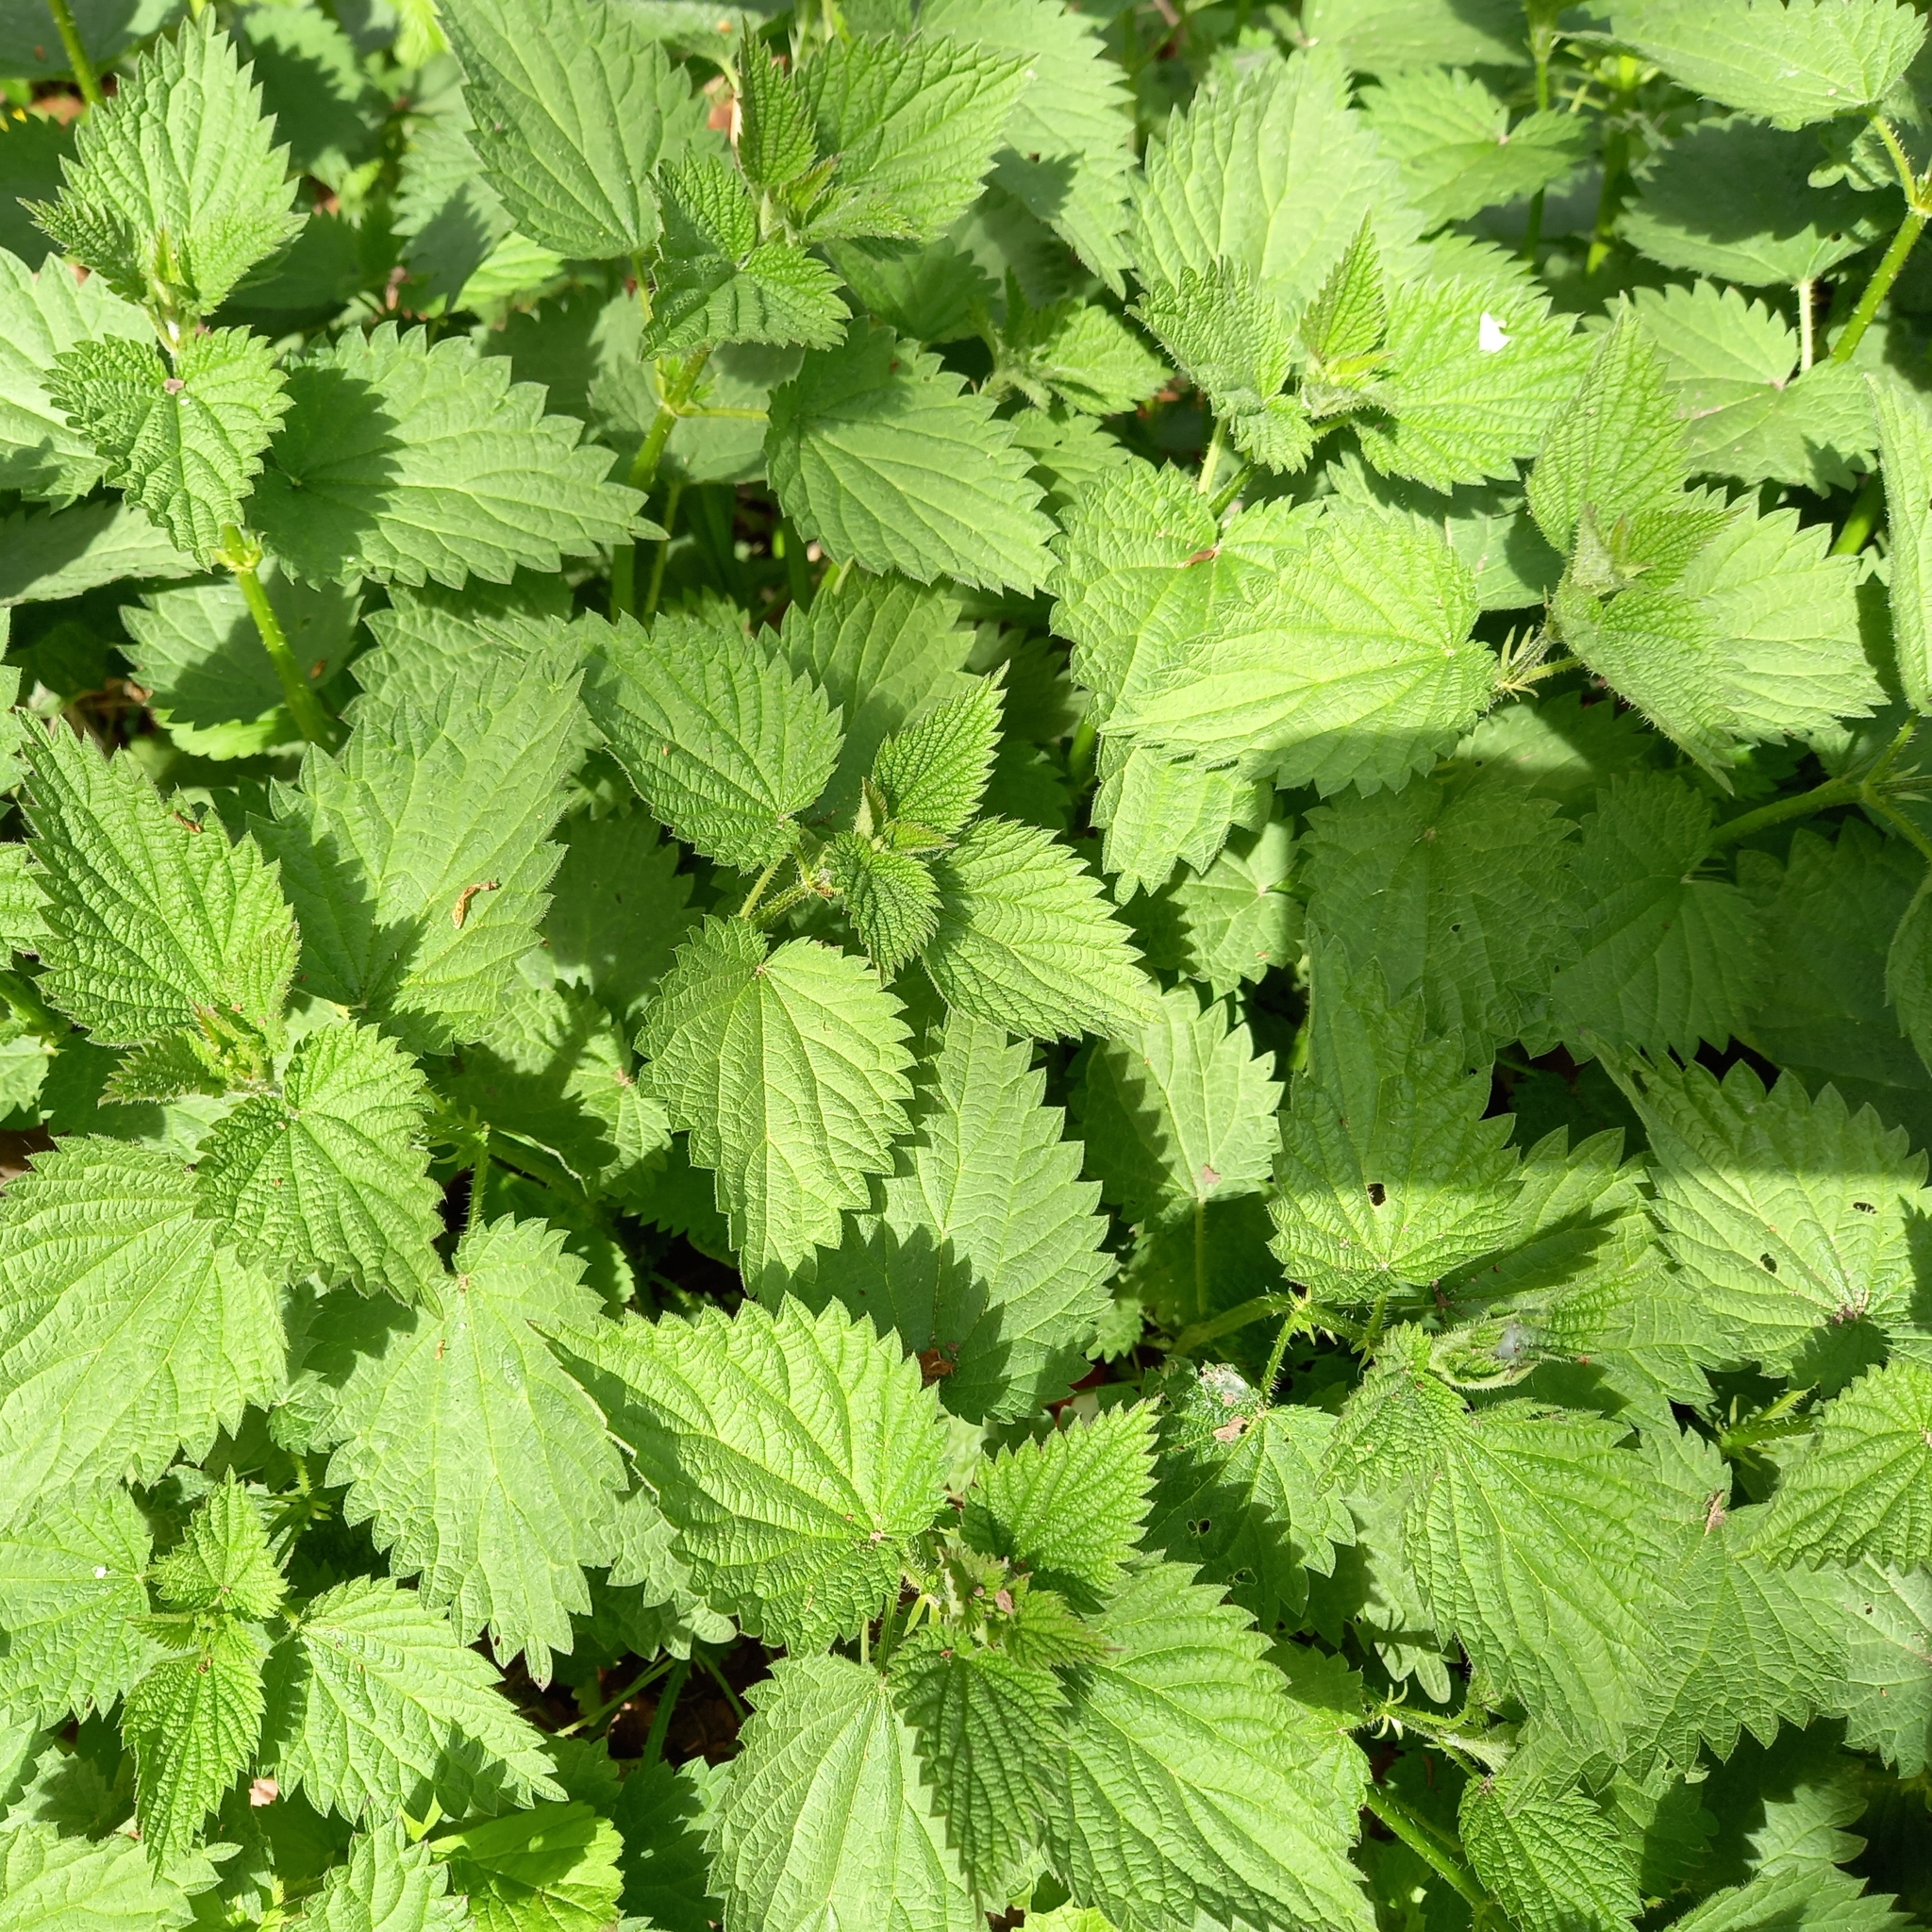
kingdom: Plantae
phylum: Tracheophyta
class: Magnoliopsida
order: Rosales
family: Urticaceae
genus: Urtica
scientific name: Urtica dioica
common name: Common nettle
